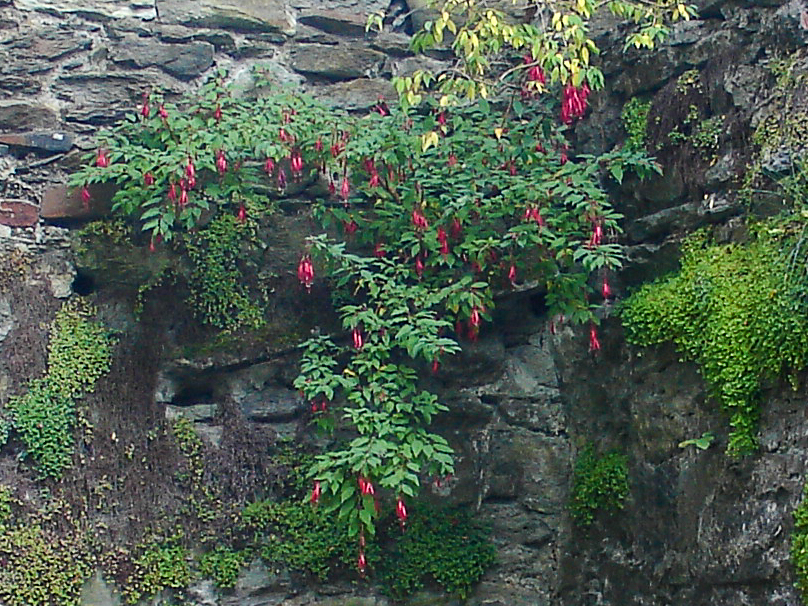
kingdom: Plantae
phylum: Tracheophyta
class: Magnoliopsida
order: Myrtales
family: Onagraceae
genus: Fuchsia
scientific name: Fuchsia magellanica
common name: Hardy fuchsia
